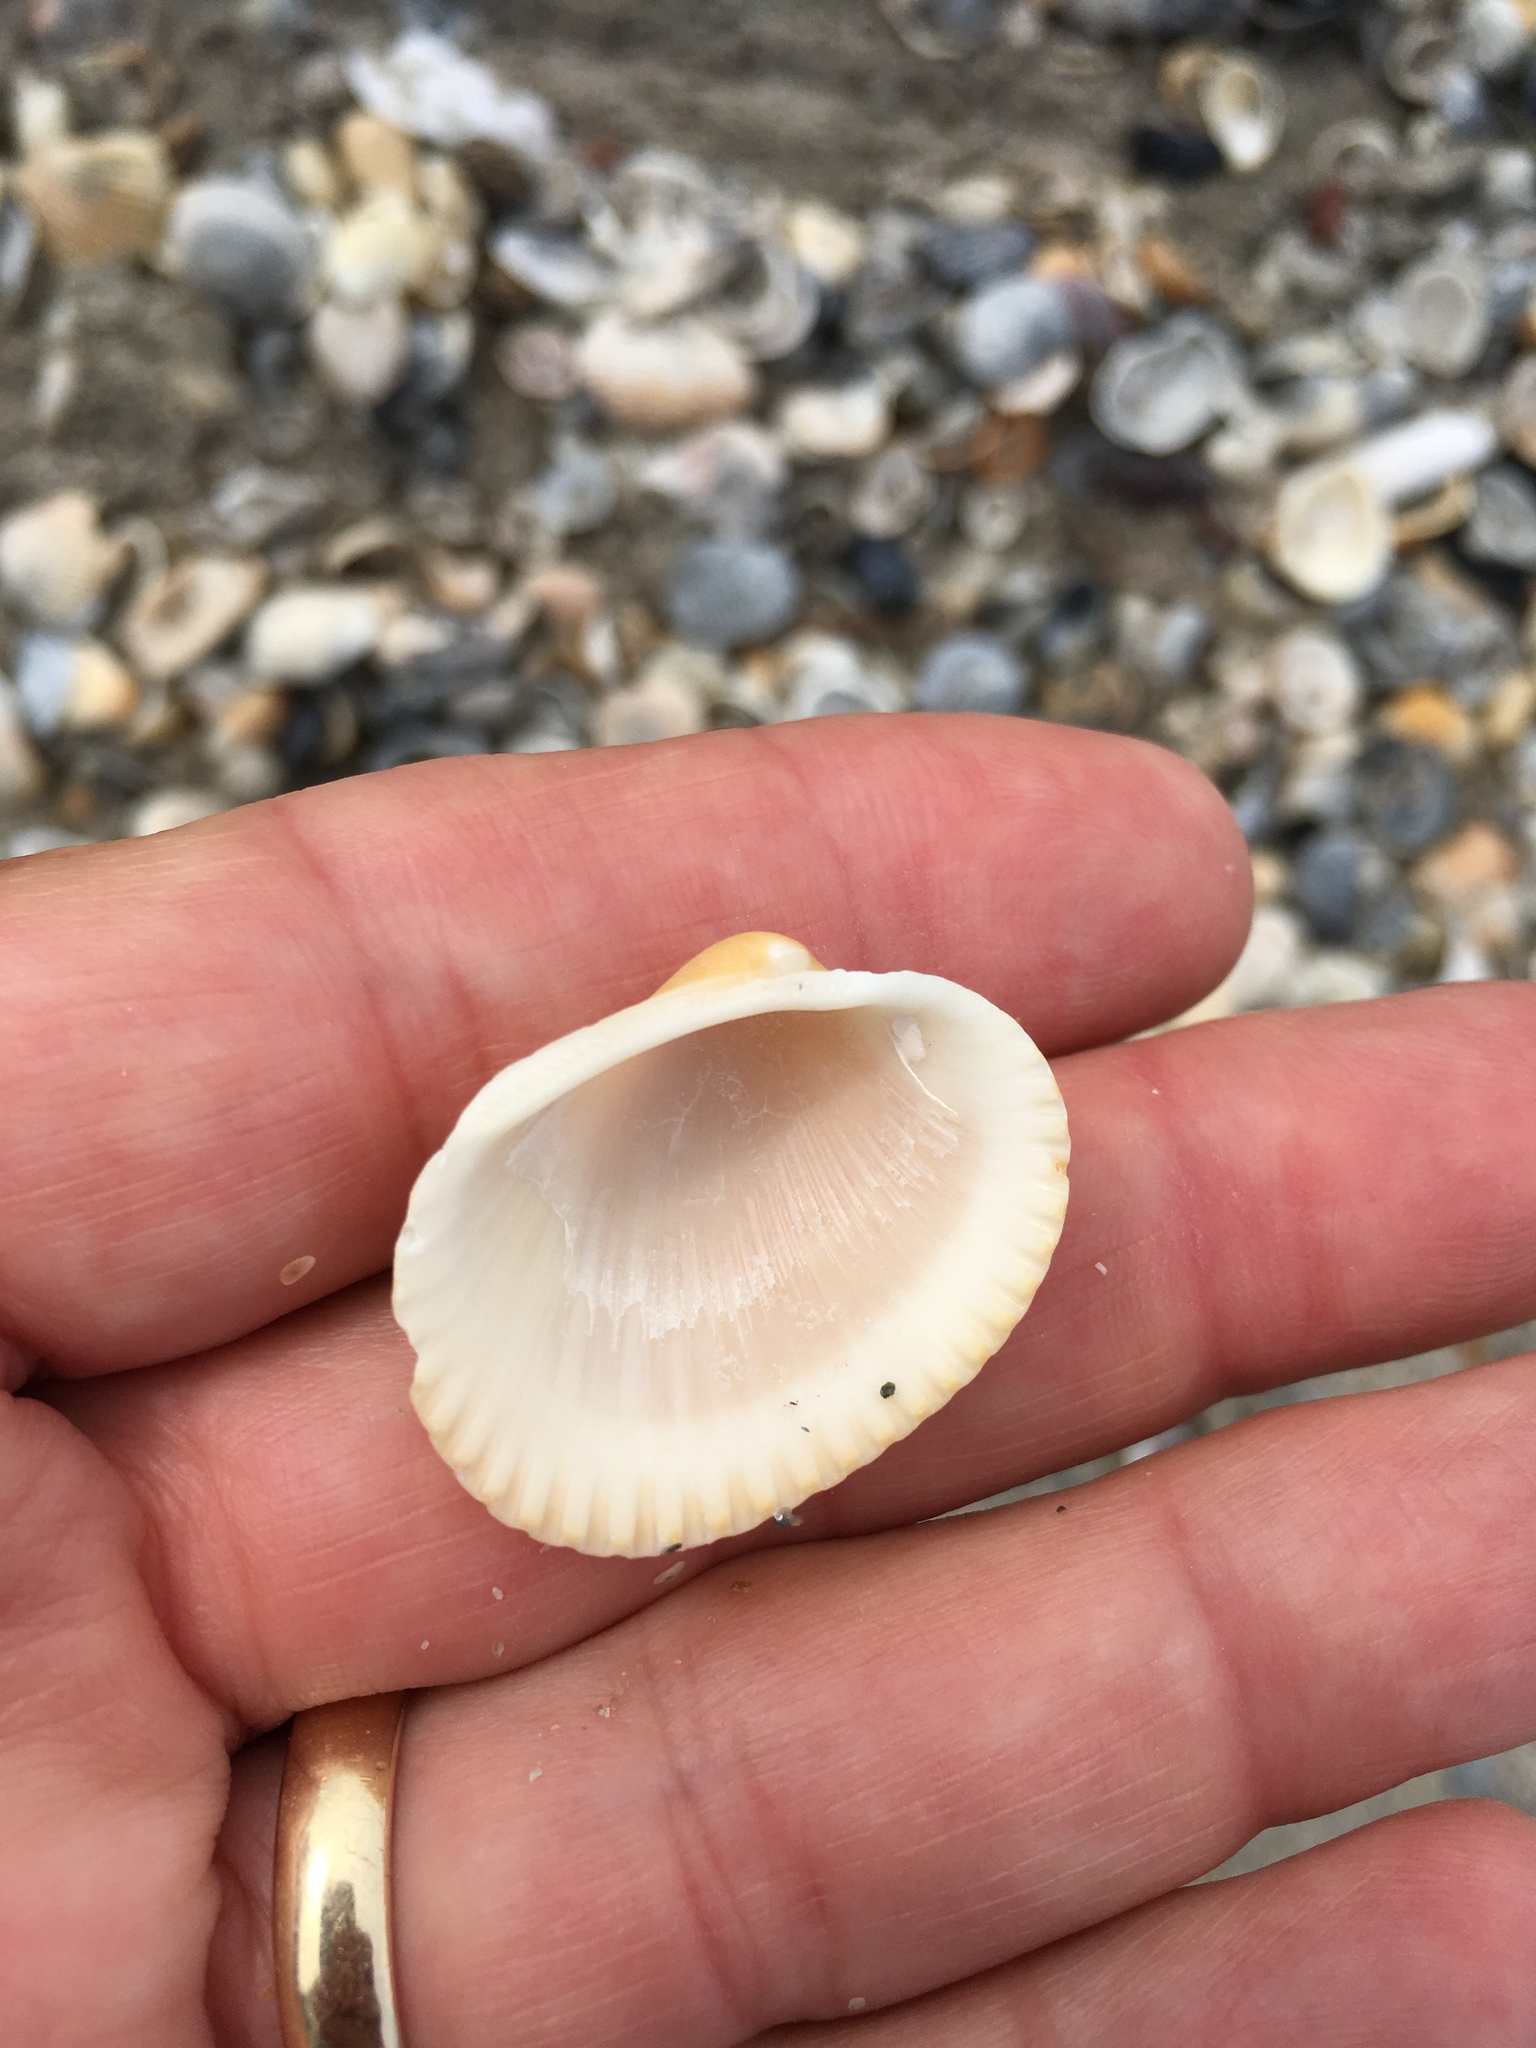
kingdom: Animalia
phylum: Mollusca
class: Bivalvia
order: Arcida
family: Arcidae
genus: Lunarca
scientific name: Lunarca ovalis
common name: Blood ark
